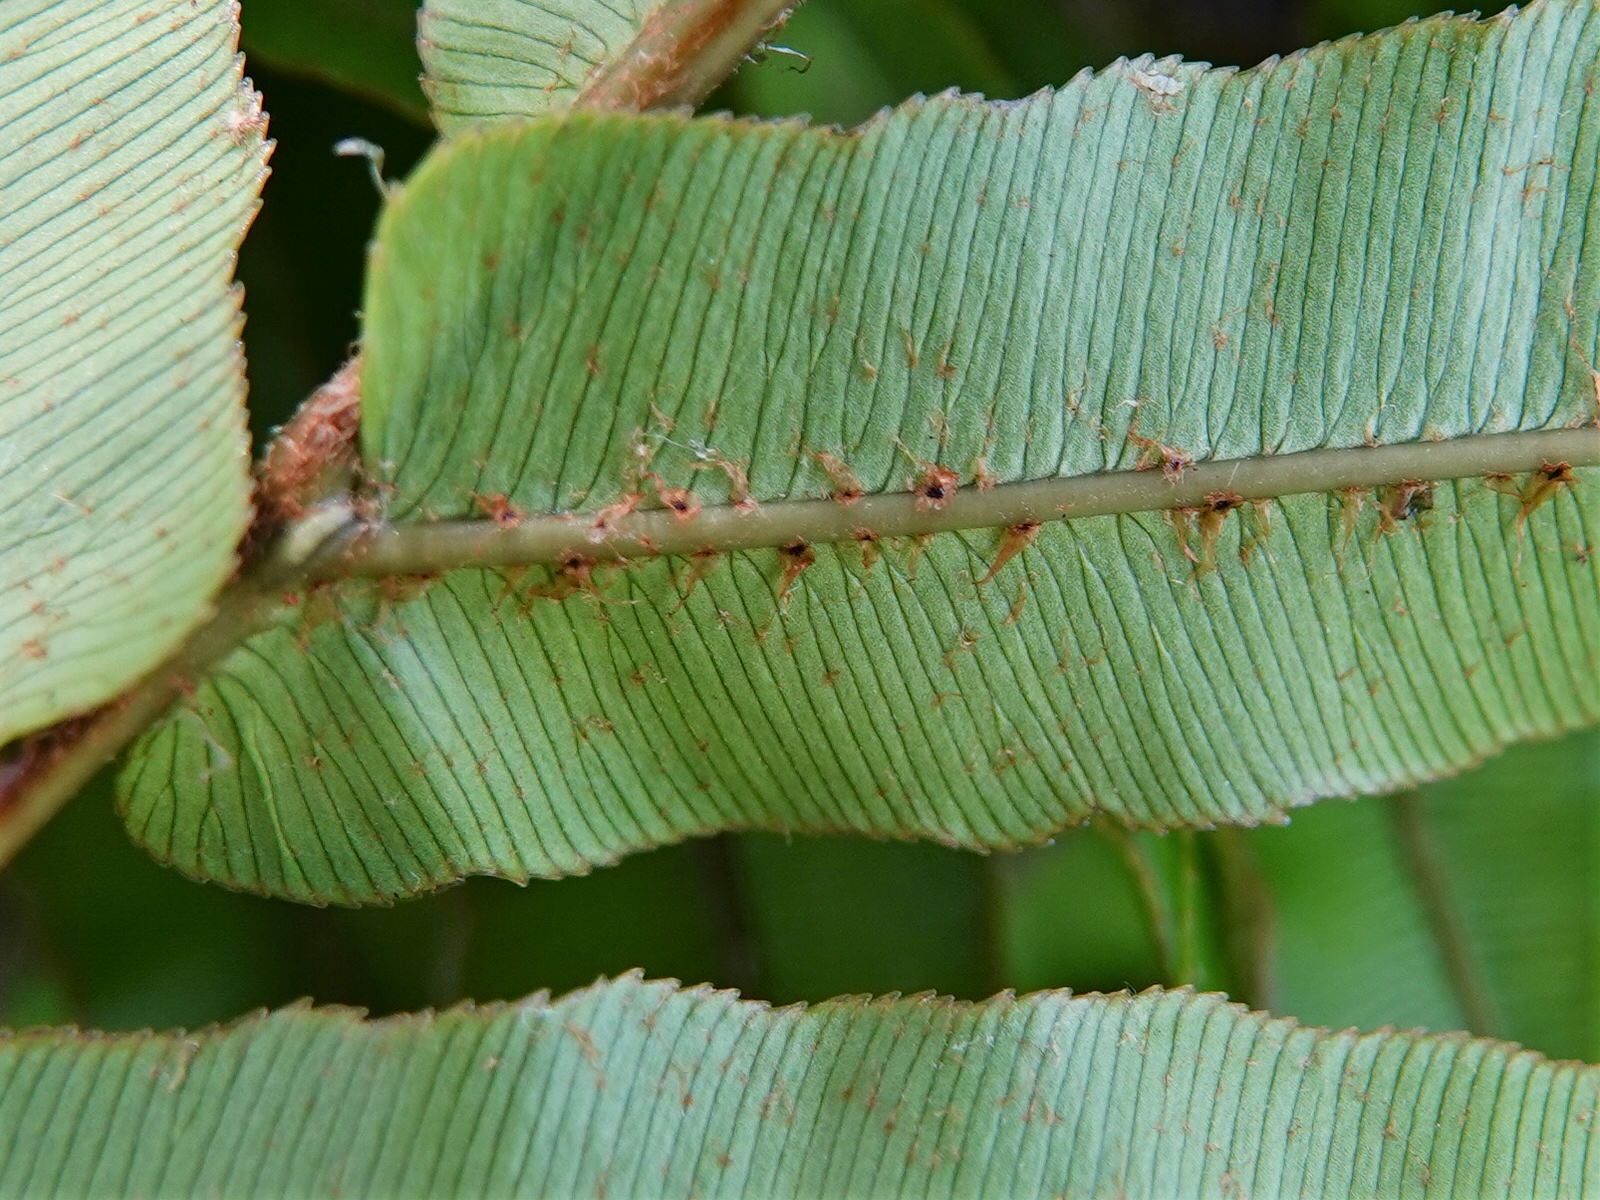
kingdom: Plantae
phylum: Tracheophyta
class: Polypodiopsida
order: Polypodiales
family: Blechnaceae
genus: Parablechnum
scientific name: Parablechnum novae-zelandiae
